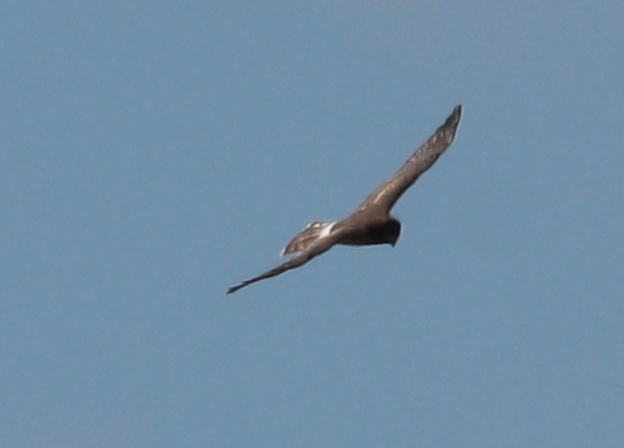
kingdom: Animalia
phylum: Chordata
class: Aves
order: Accipitriformes
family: Accipitridae
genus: Circus
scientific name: Circus cyaneus
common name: Hen harrier
